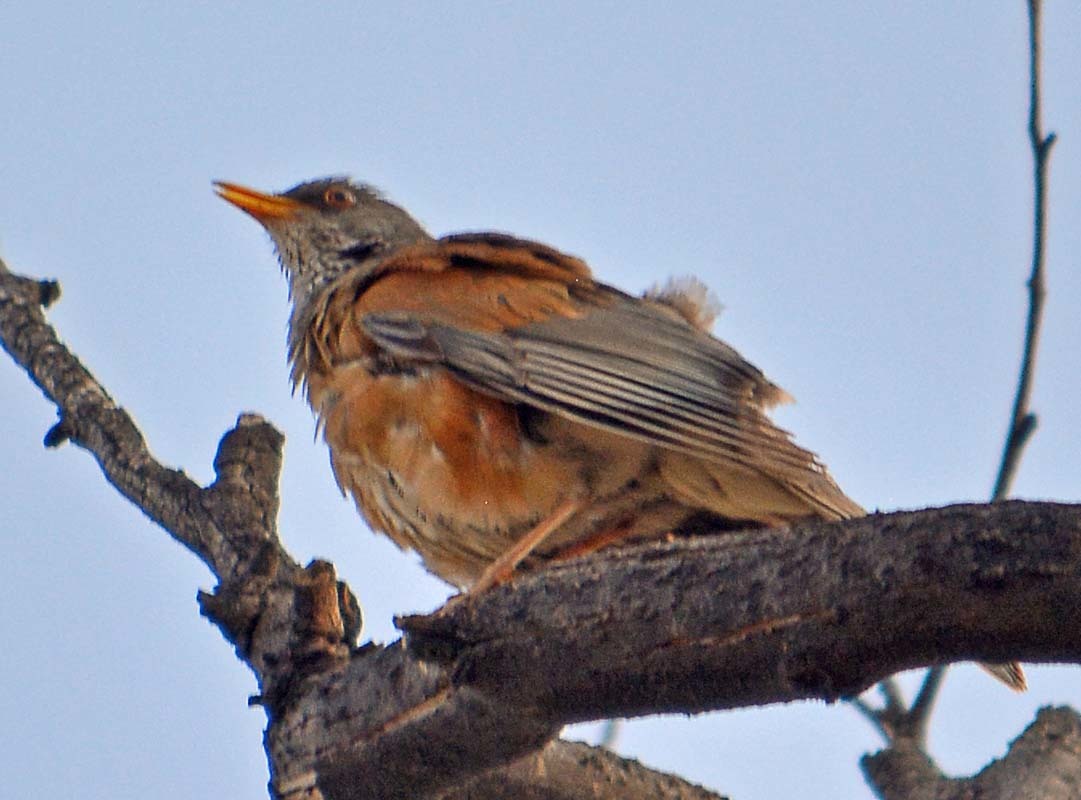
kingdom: Animalia
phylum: Chordata
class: Aves
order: Passeriformes
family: Turdidae
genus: Turdus
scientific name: Turdus rufopalliatus
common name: Rufous-backed robin
